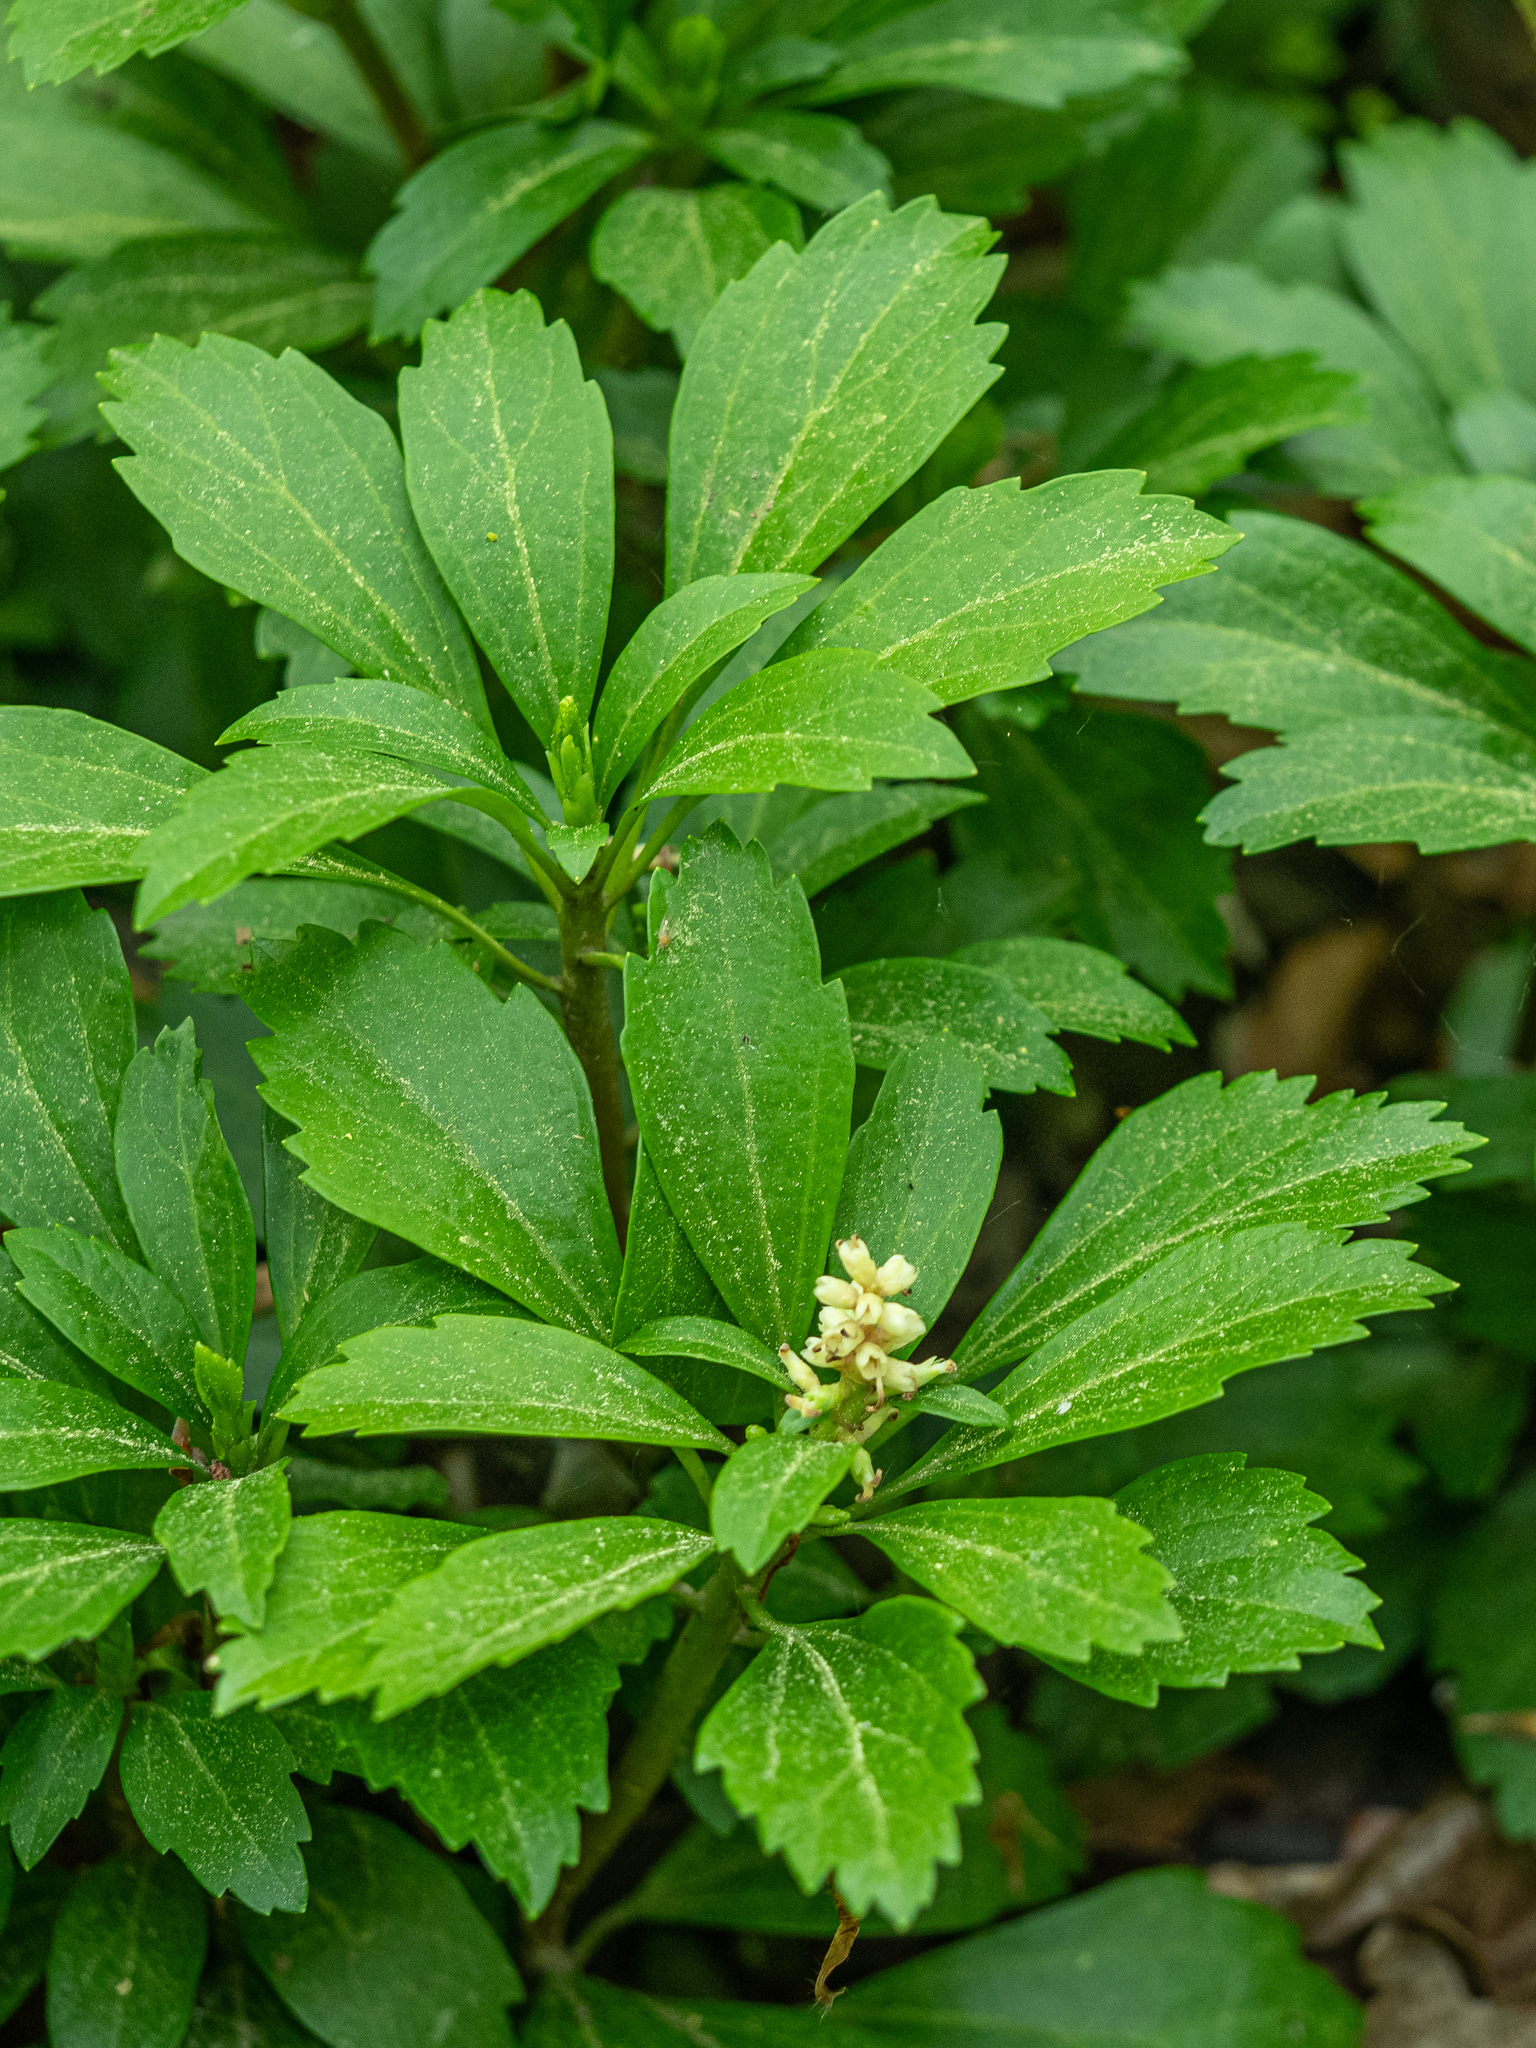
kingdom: Plantae
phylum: Tracheophyta
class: Magnoliopsida
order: Buxales
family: Buxaceae
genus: Pachysandra
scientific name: Pachysandra terminalis
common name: Japanese pachysandra
